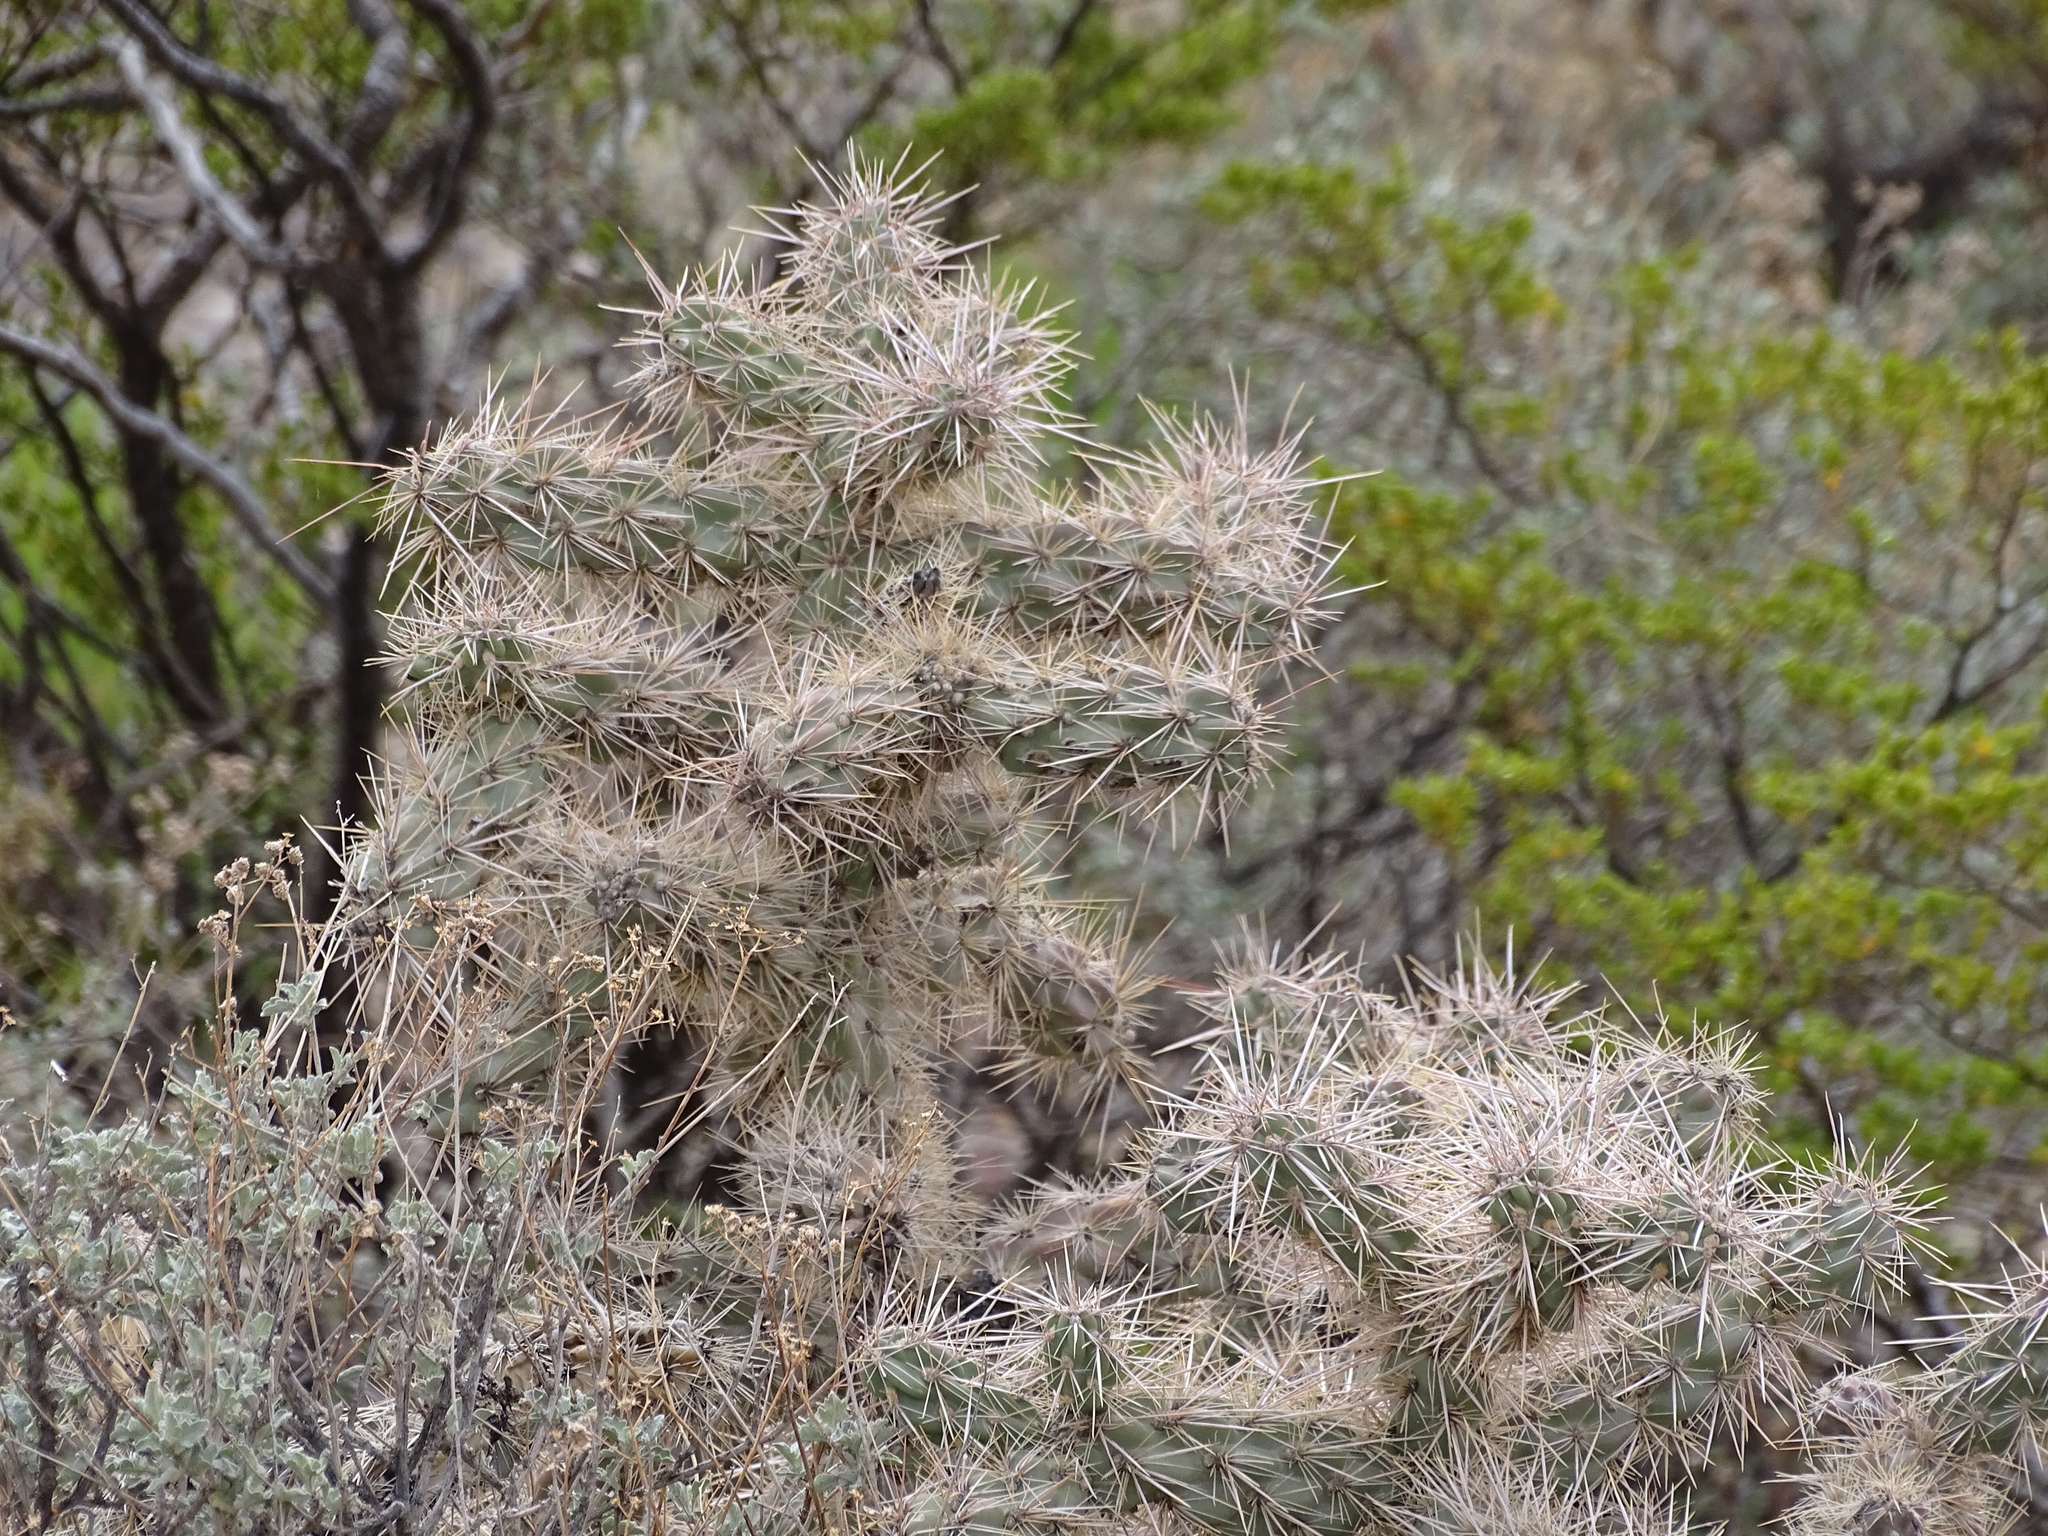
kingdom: Plantae
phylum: Tracheophyta
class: Magnoliopsida
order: Caryophyllales
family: Cactaceae
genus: Cylindropuntia
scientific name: Cylindropuntia imbricata
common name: Candelabrum cactus
